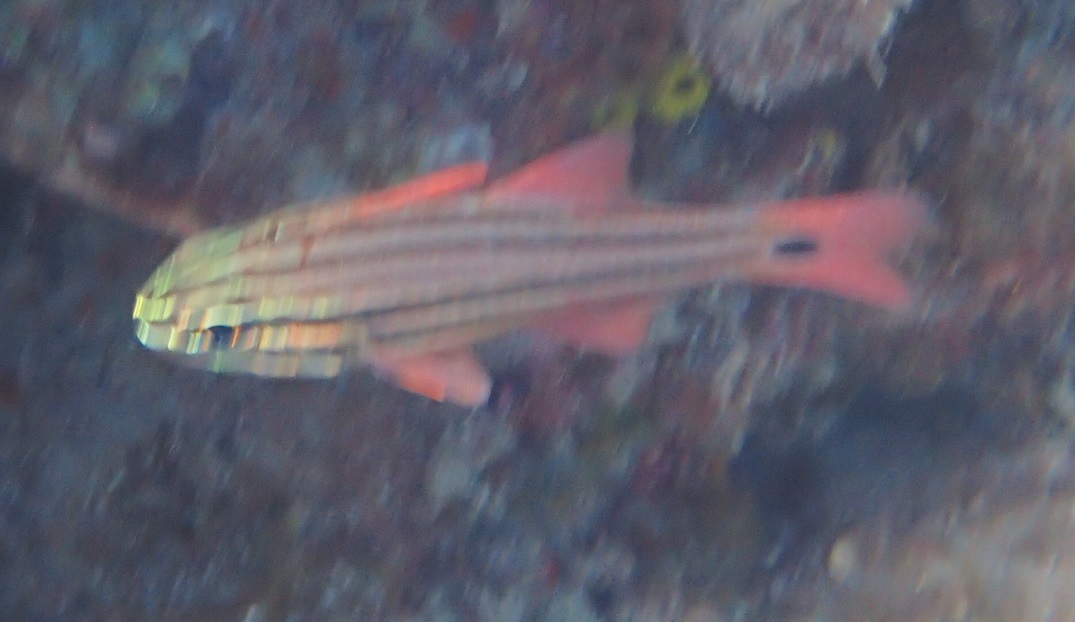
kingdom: Animalia
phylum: Chordata
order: Perciformes
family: Apogonidae
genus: Ostorhinchus
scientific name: Ostorhinchus limenus
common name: Four-banded soldierfish
